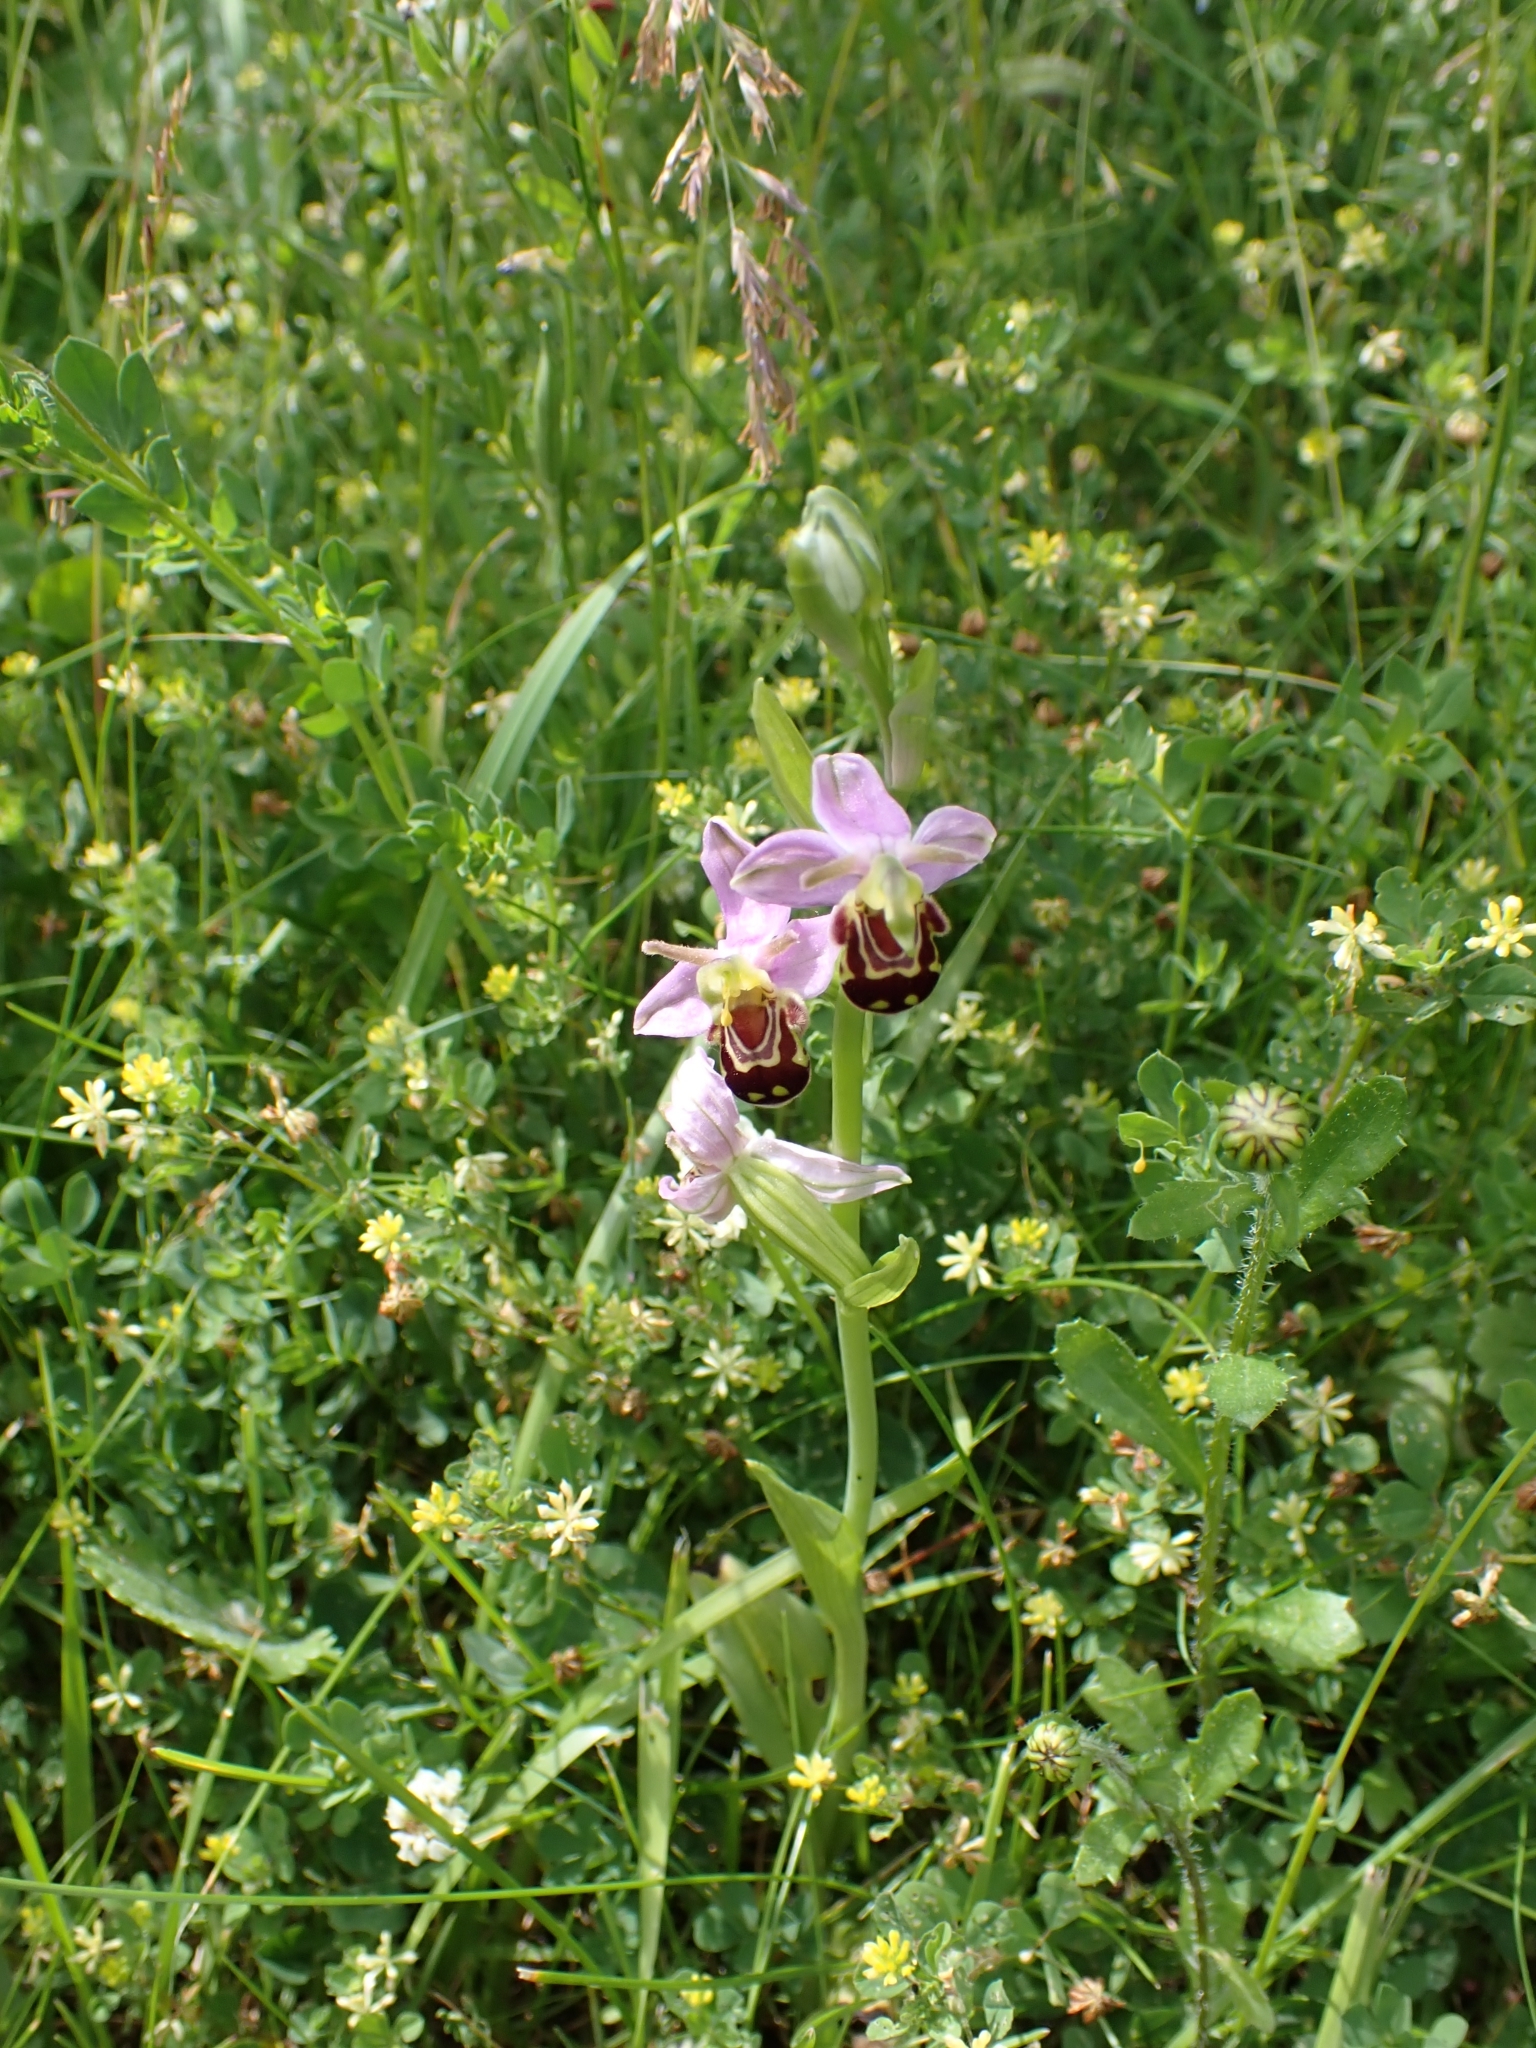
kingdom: Plantae
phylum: Tracheophyta
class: Liliopsida
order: Asparagales
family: Orchidaceae
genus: Ophrys
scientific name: Ophrys apifera
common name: Bee orchid
